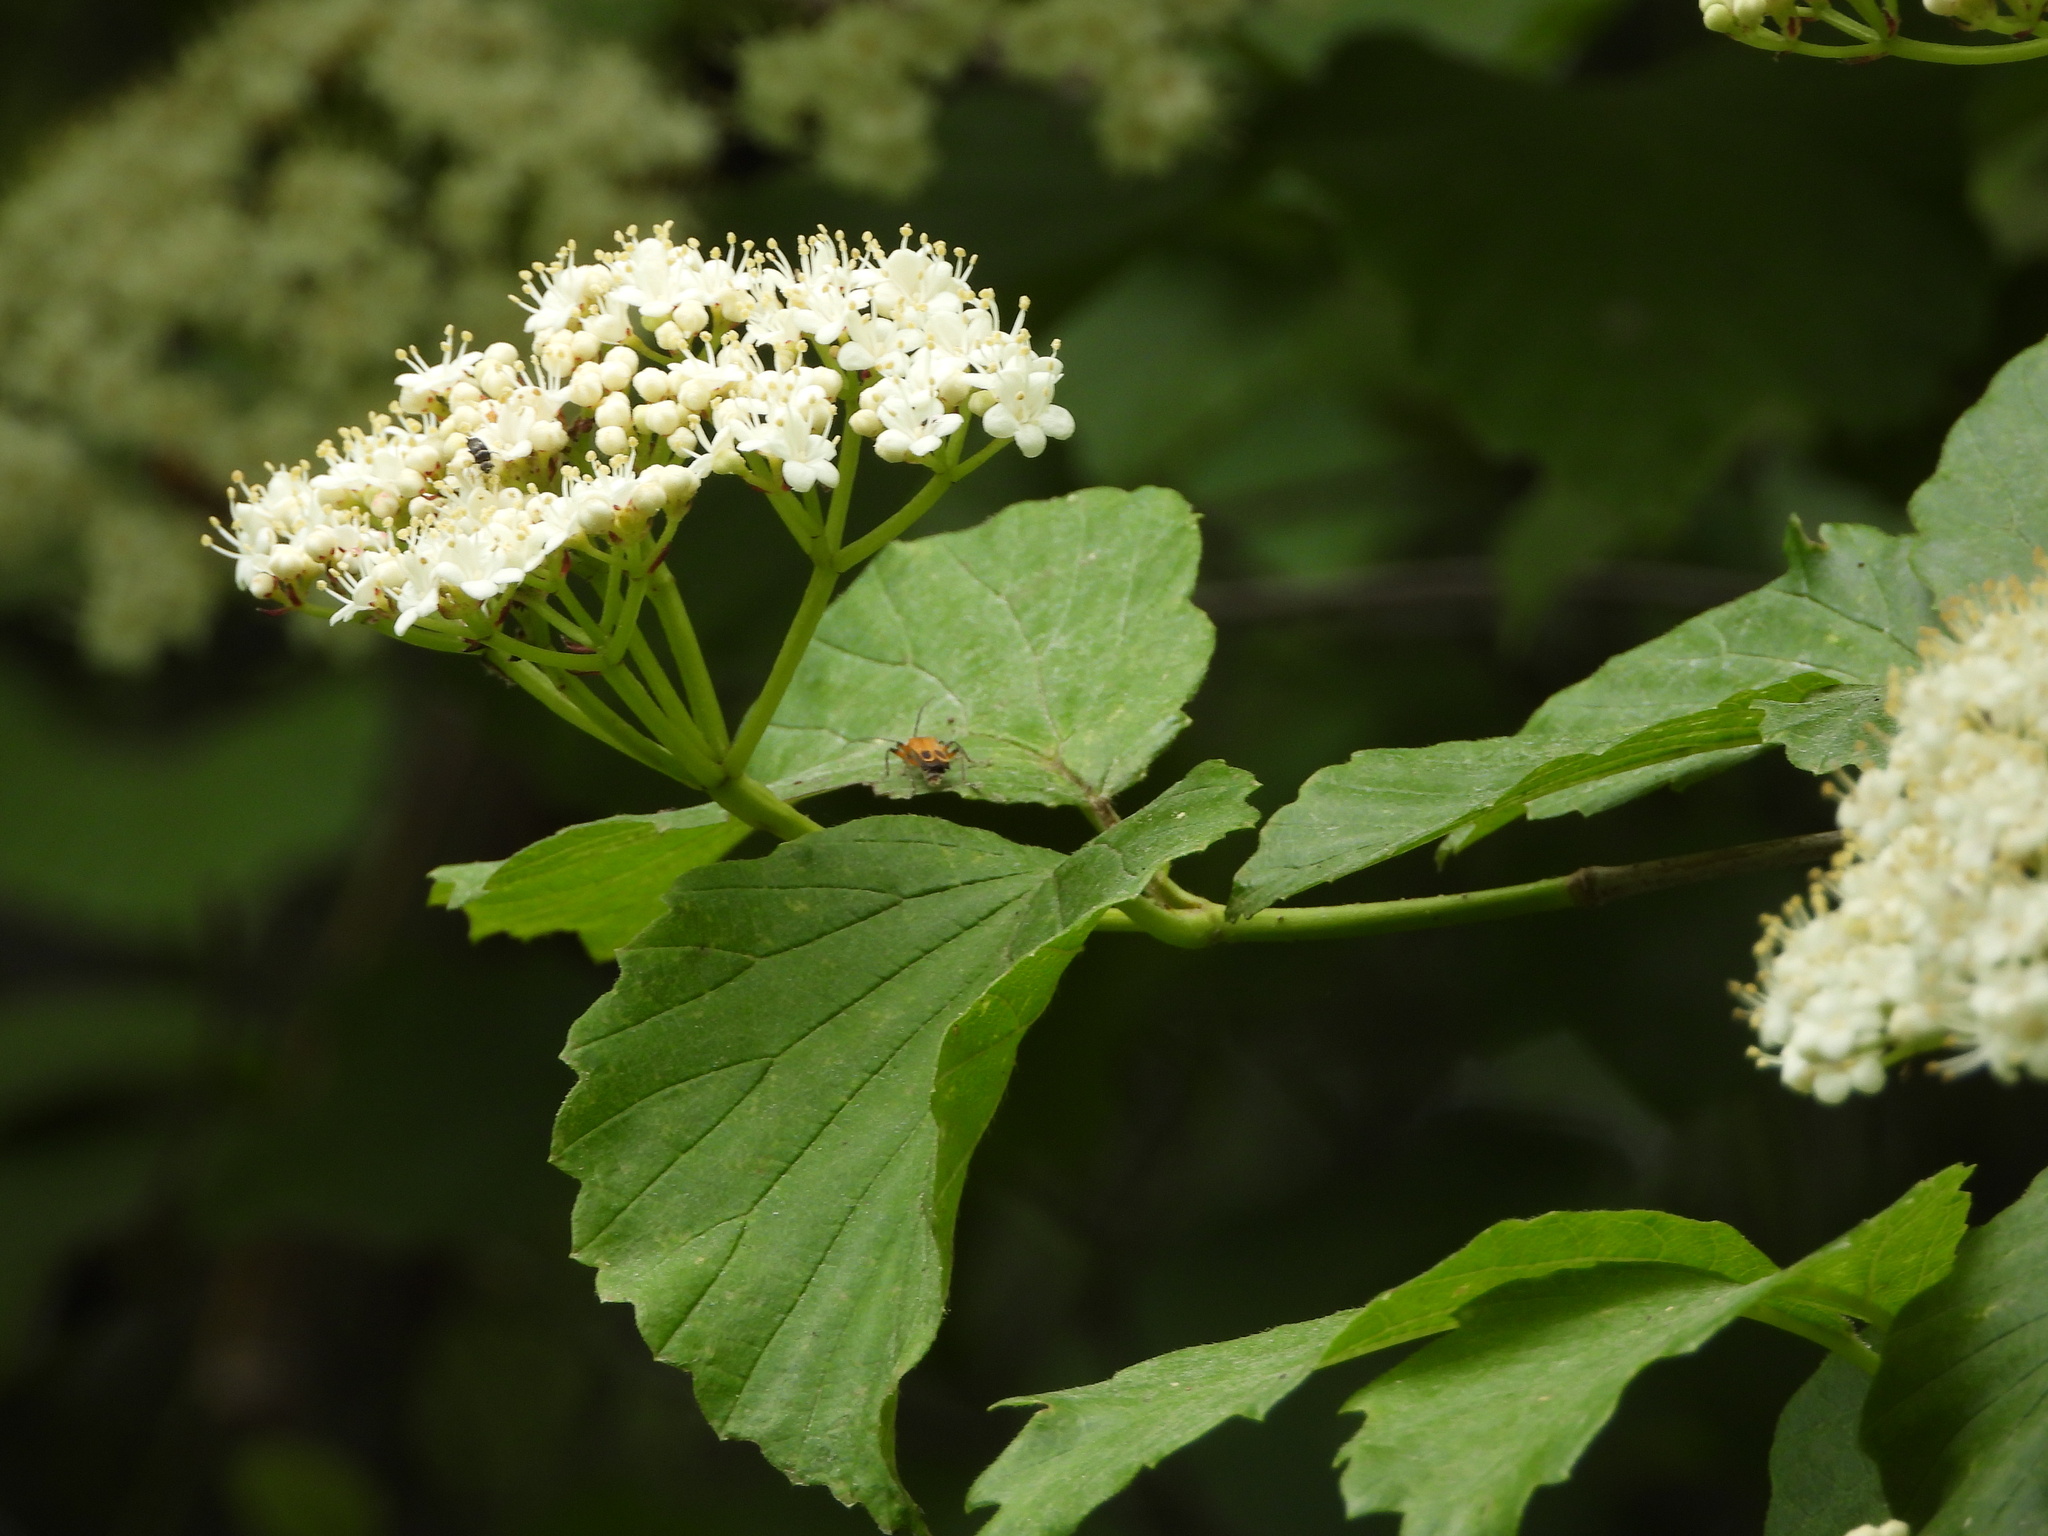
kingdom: Animalia
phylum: Arthropoda
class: Insecta
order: Coleoptera
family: Cantharidae
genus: Chauliognathus
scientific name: Chauliognathus marginatus
